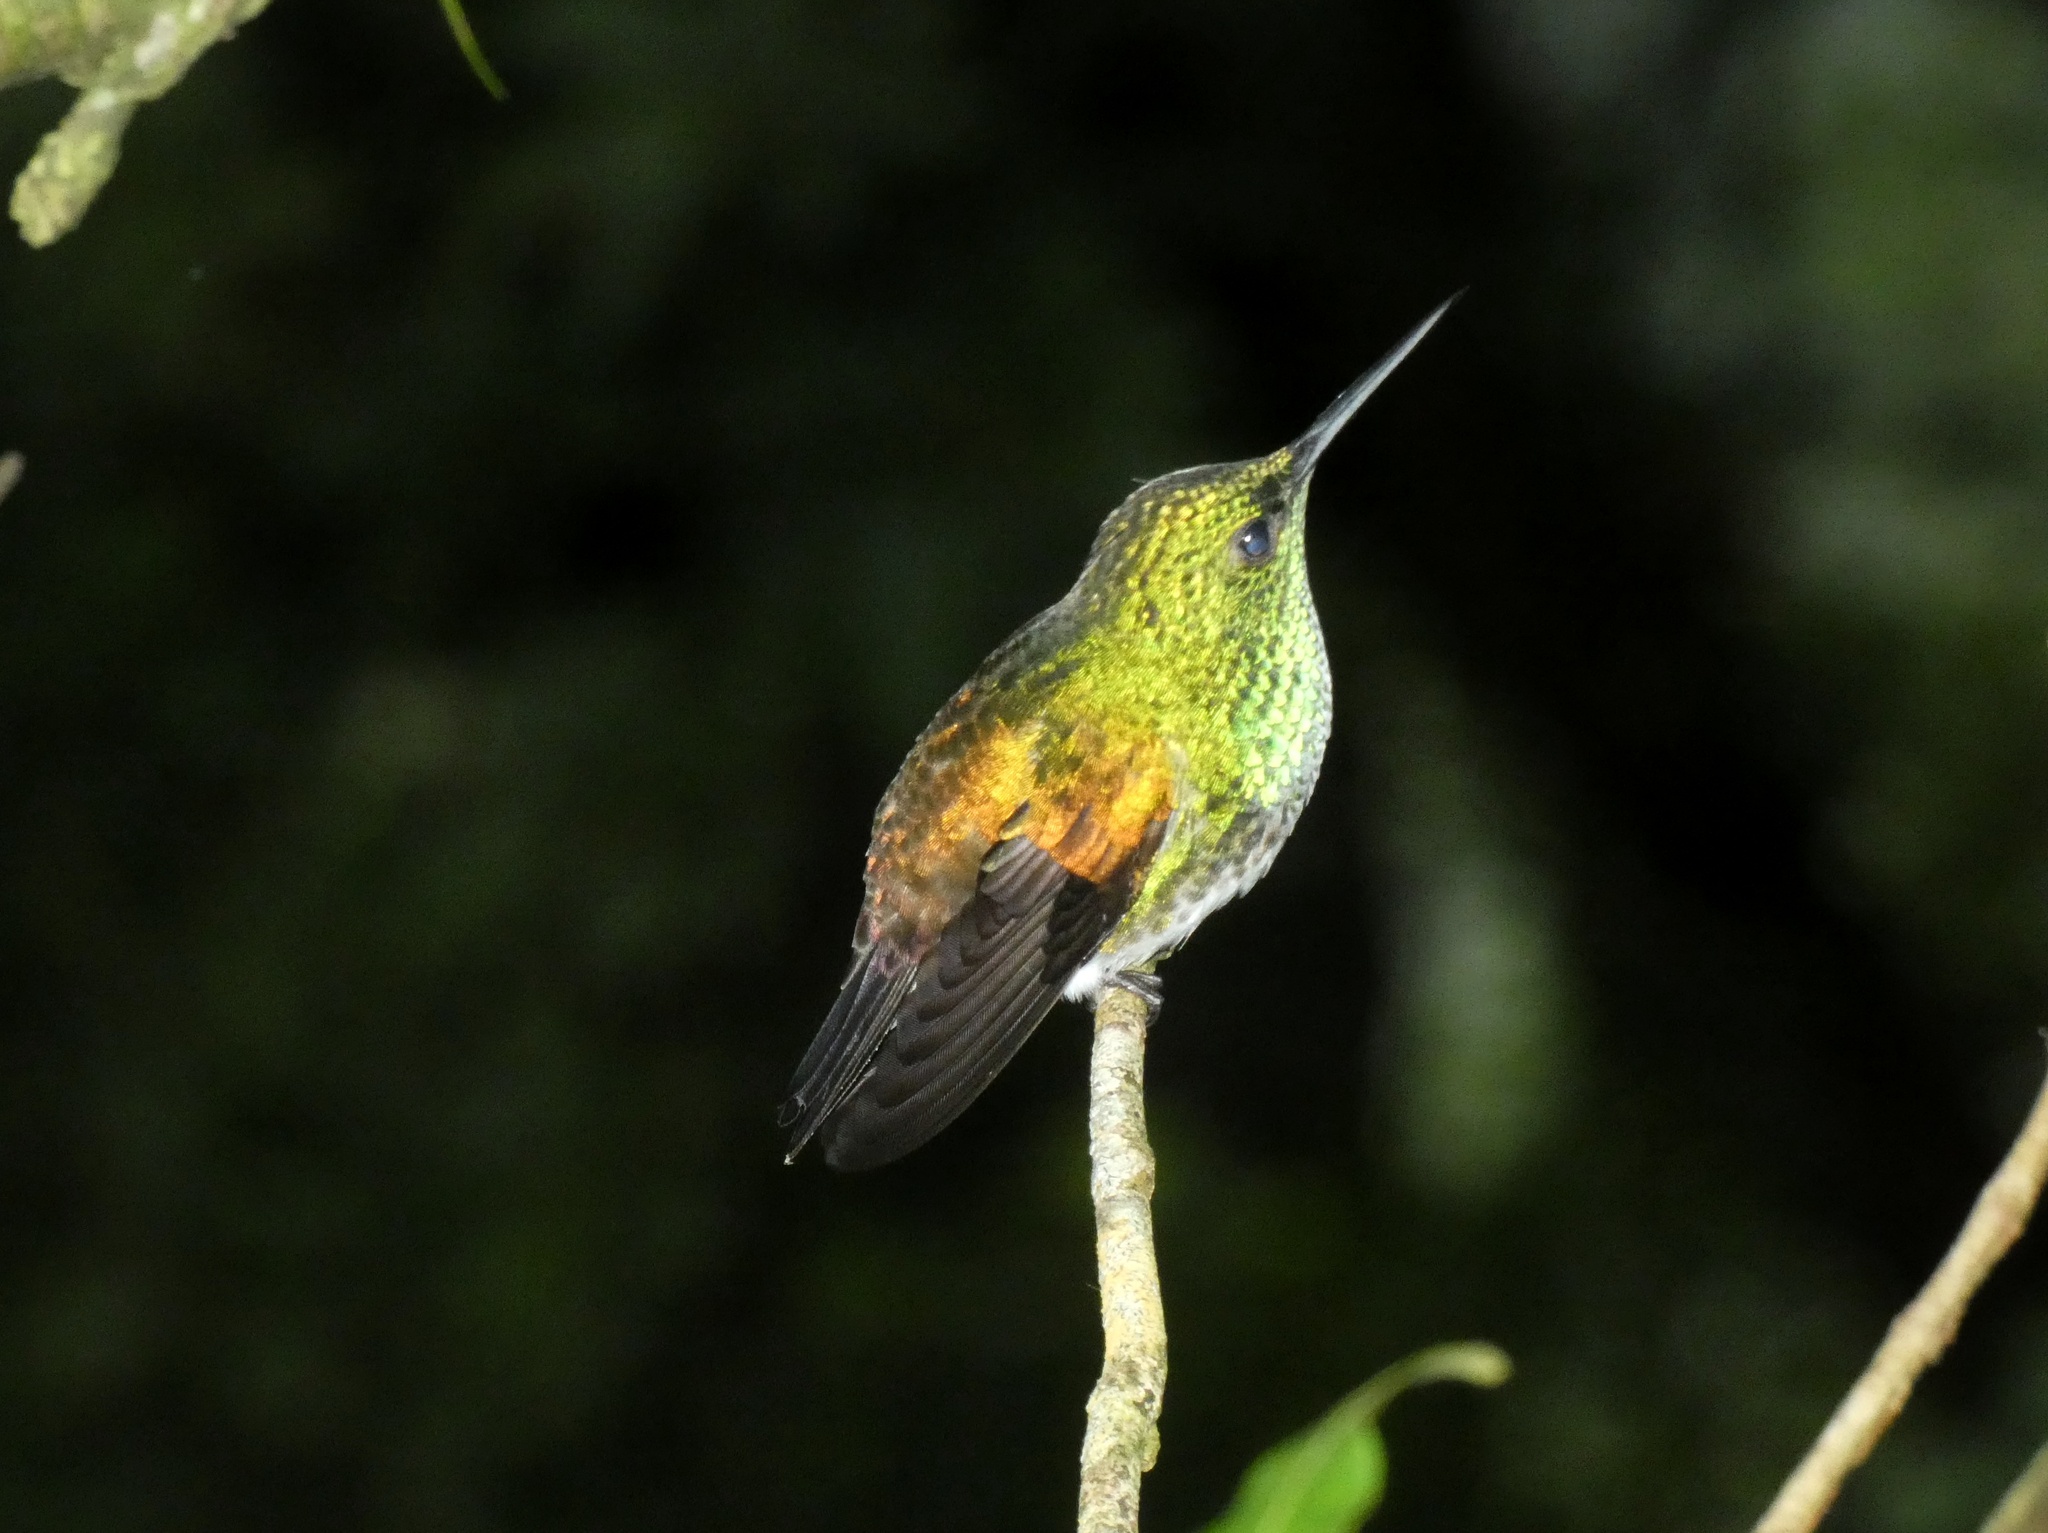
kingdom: Animalia
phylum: Chordata
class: Aves
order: Apodiformes
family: Trochilidae
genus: Saucerottia
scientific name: Saucerottia edward
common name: Snowy-bellied hummingbird
